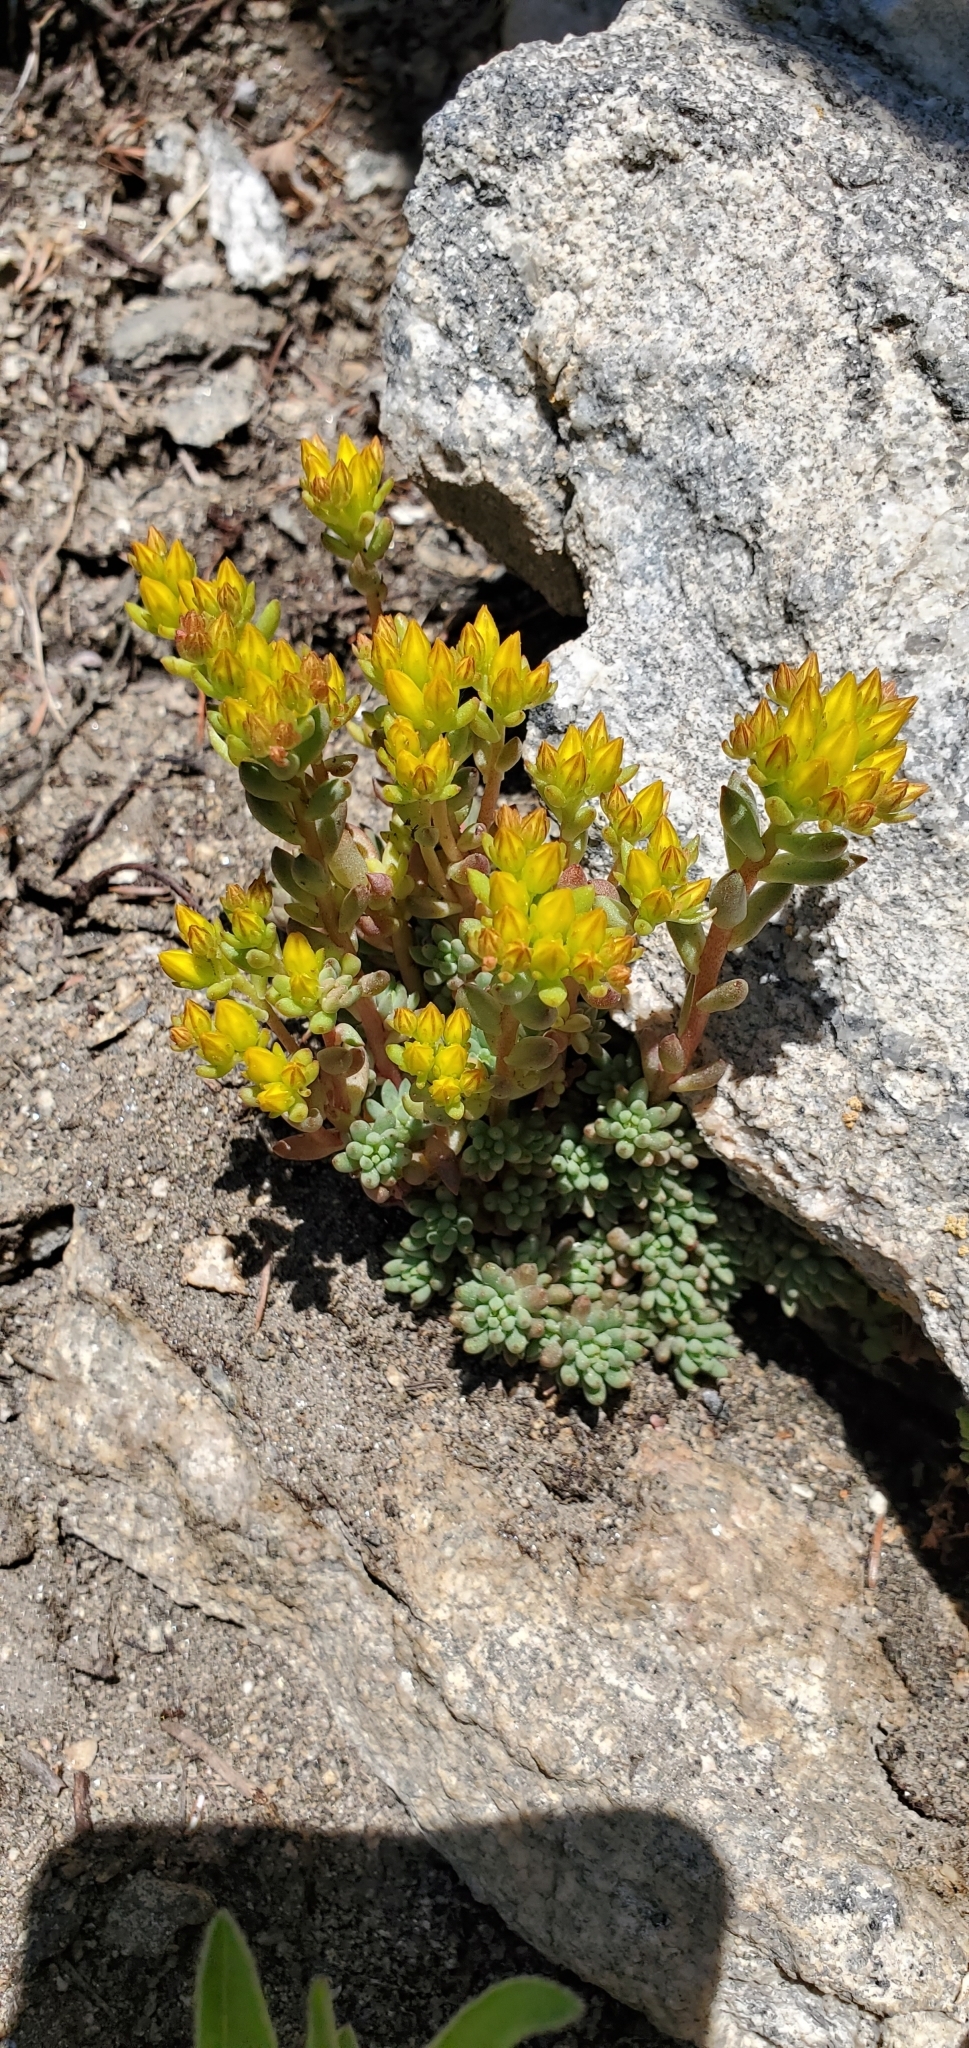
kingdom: Plantae
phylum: Tracheophyta
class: Magnoliopsida
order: Saxifragales
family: Crassulaceae
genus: Sedum
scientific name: Sedum lanceolatum
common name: Common stonecrop
